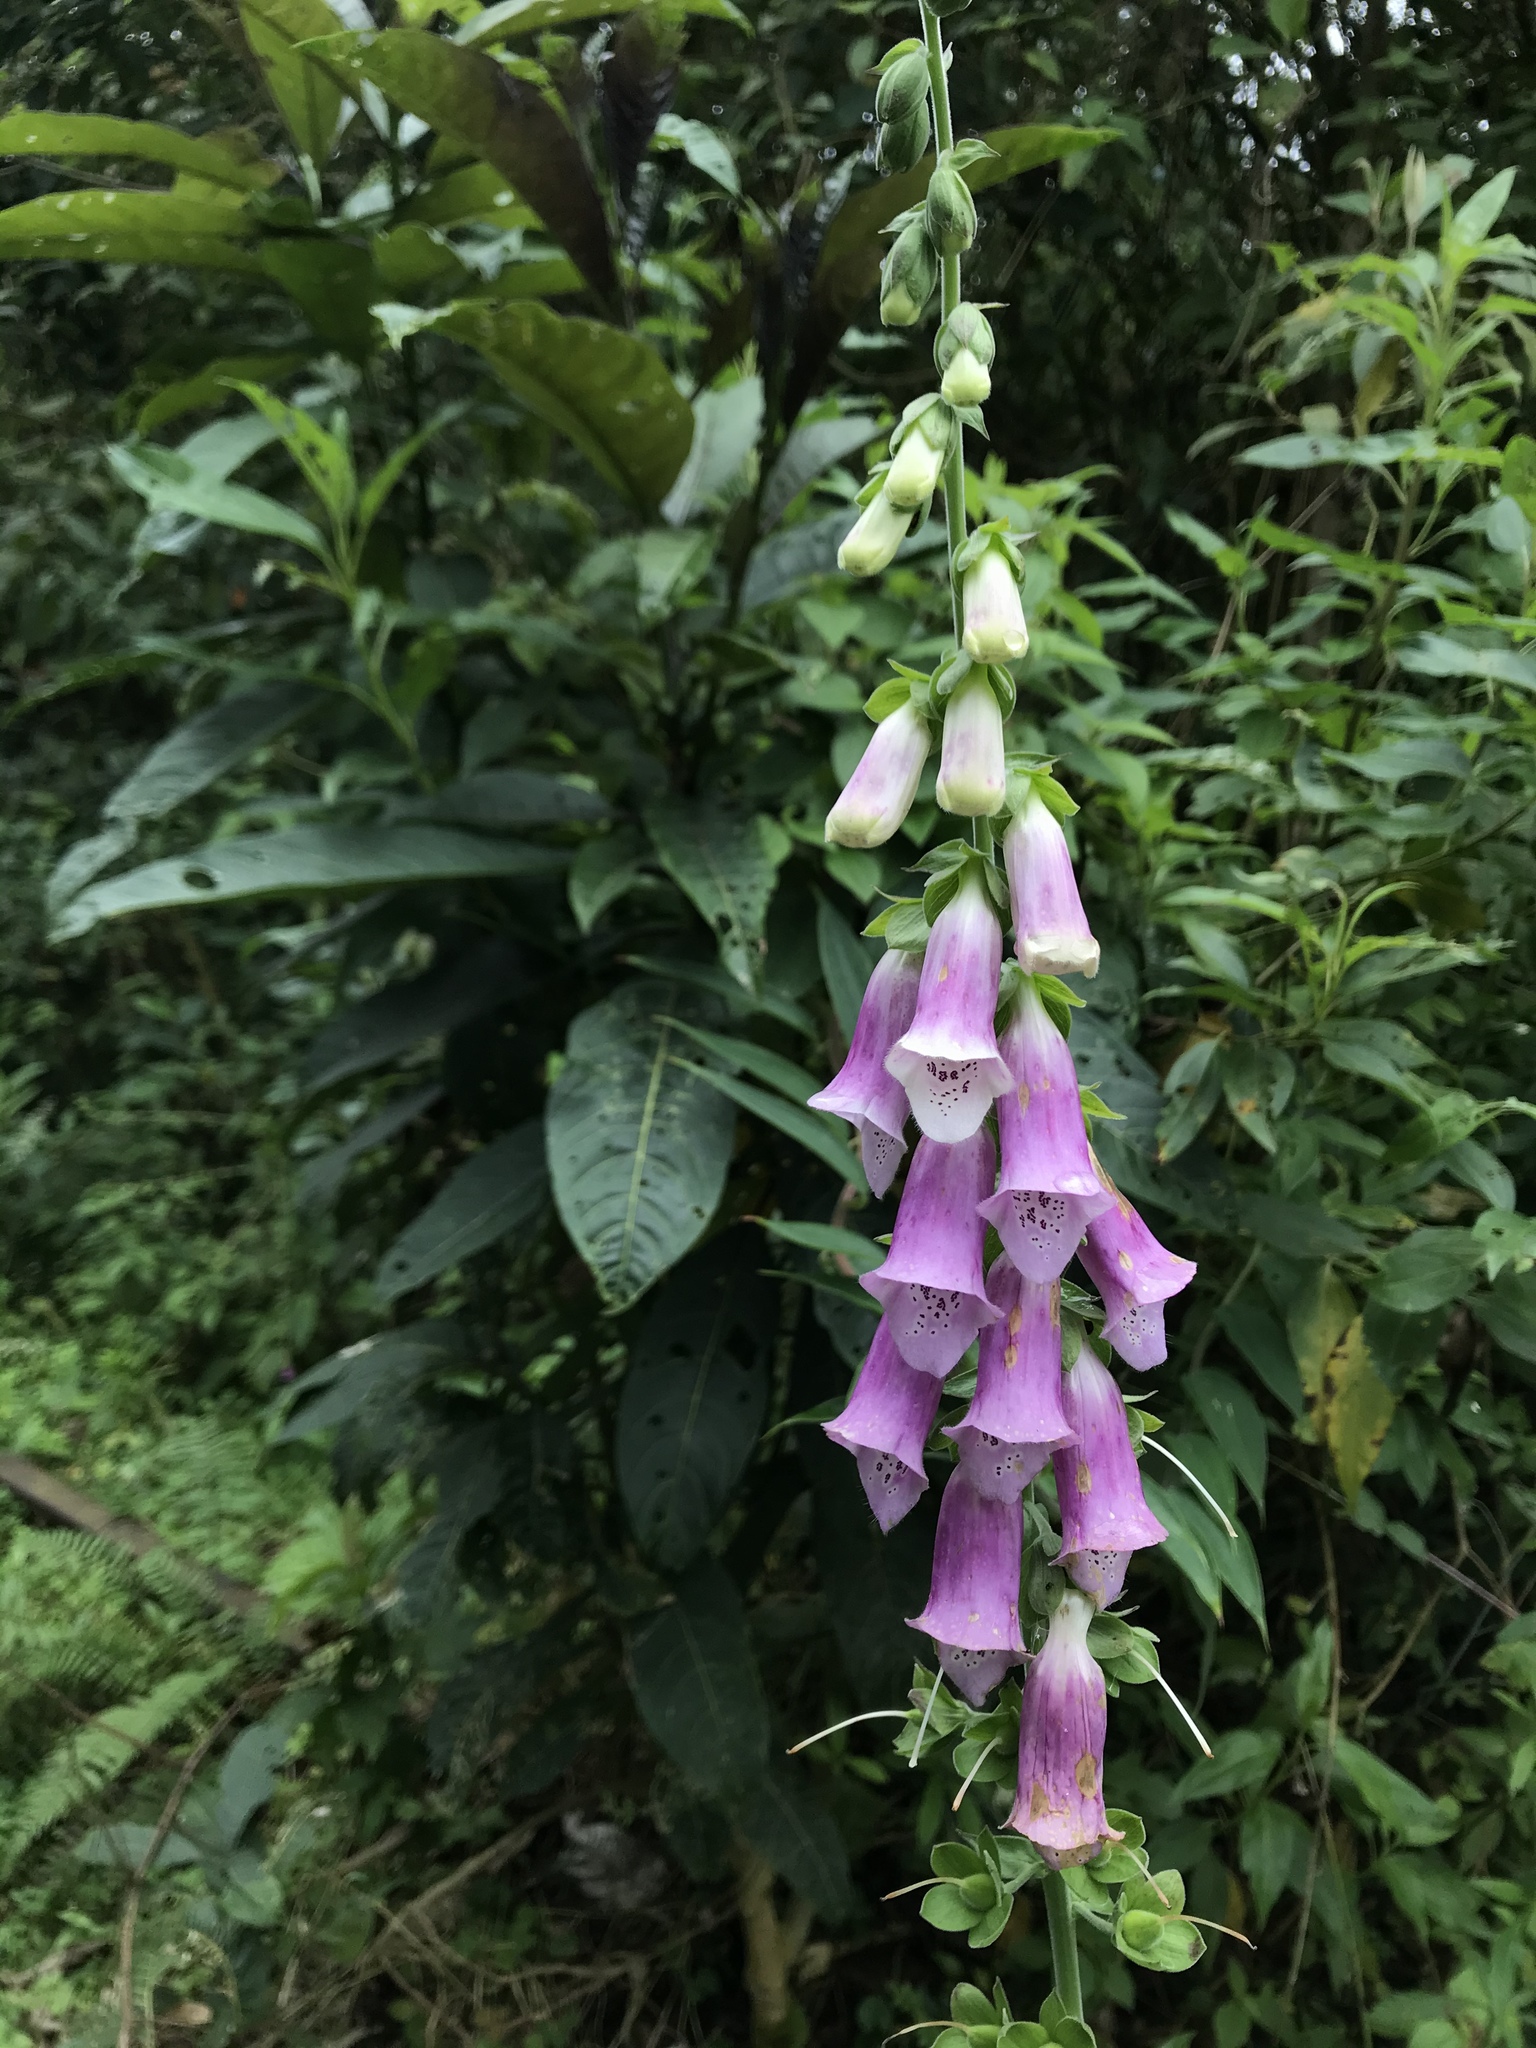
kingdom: Plantae
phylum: Tracheophyta
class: Magnoliopsida
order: Lamiales
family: Plantaginaceae
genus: Digitalis
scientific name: Digitalis purpurea
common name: Foxglove
